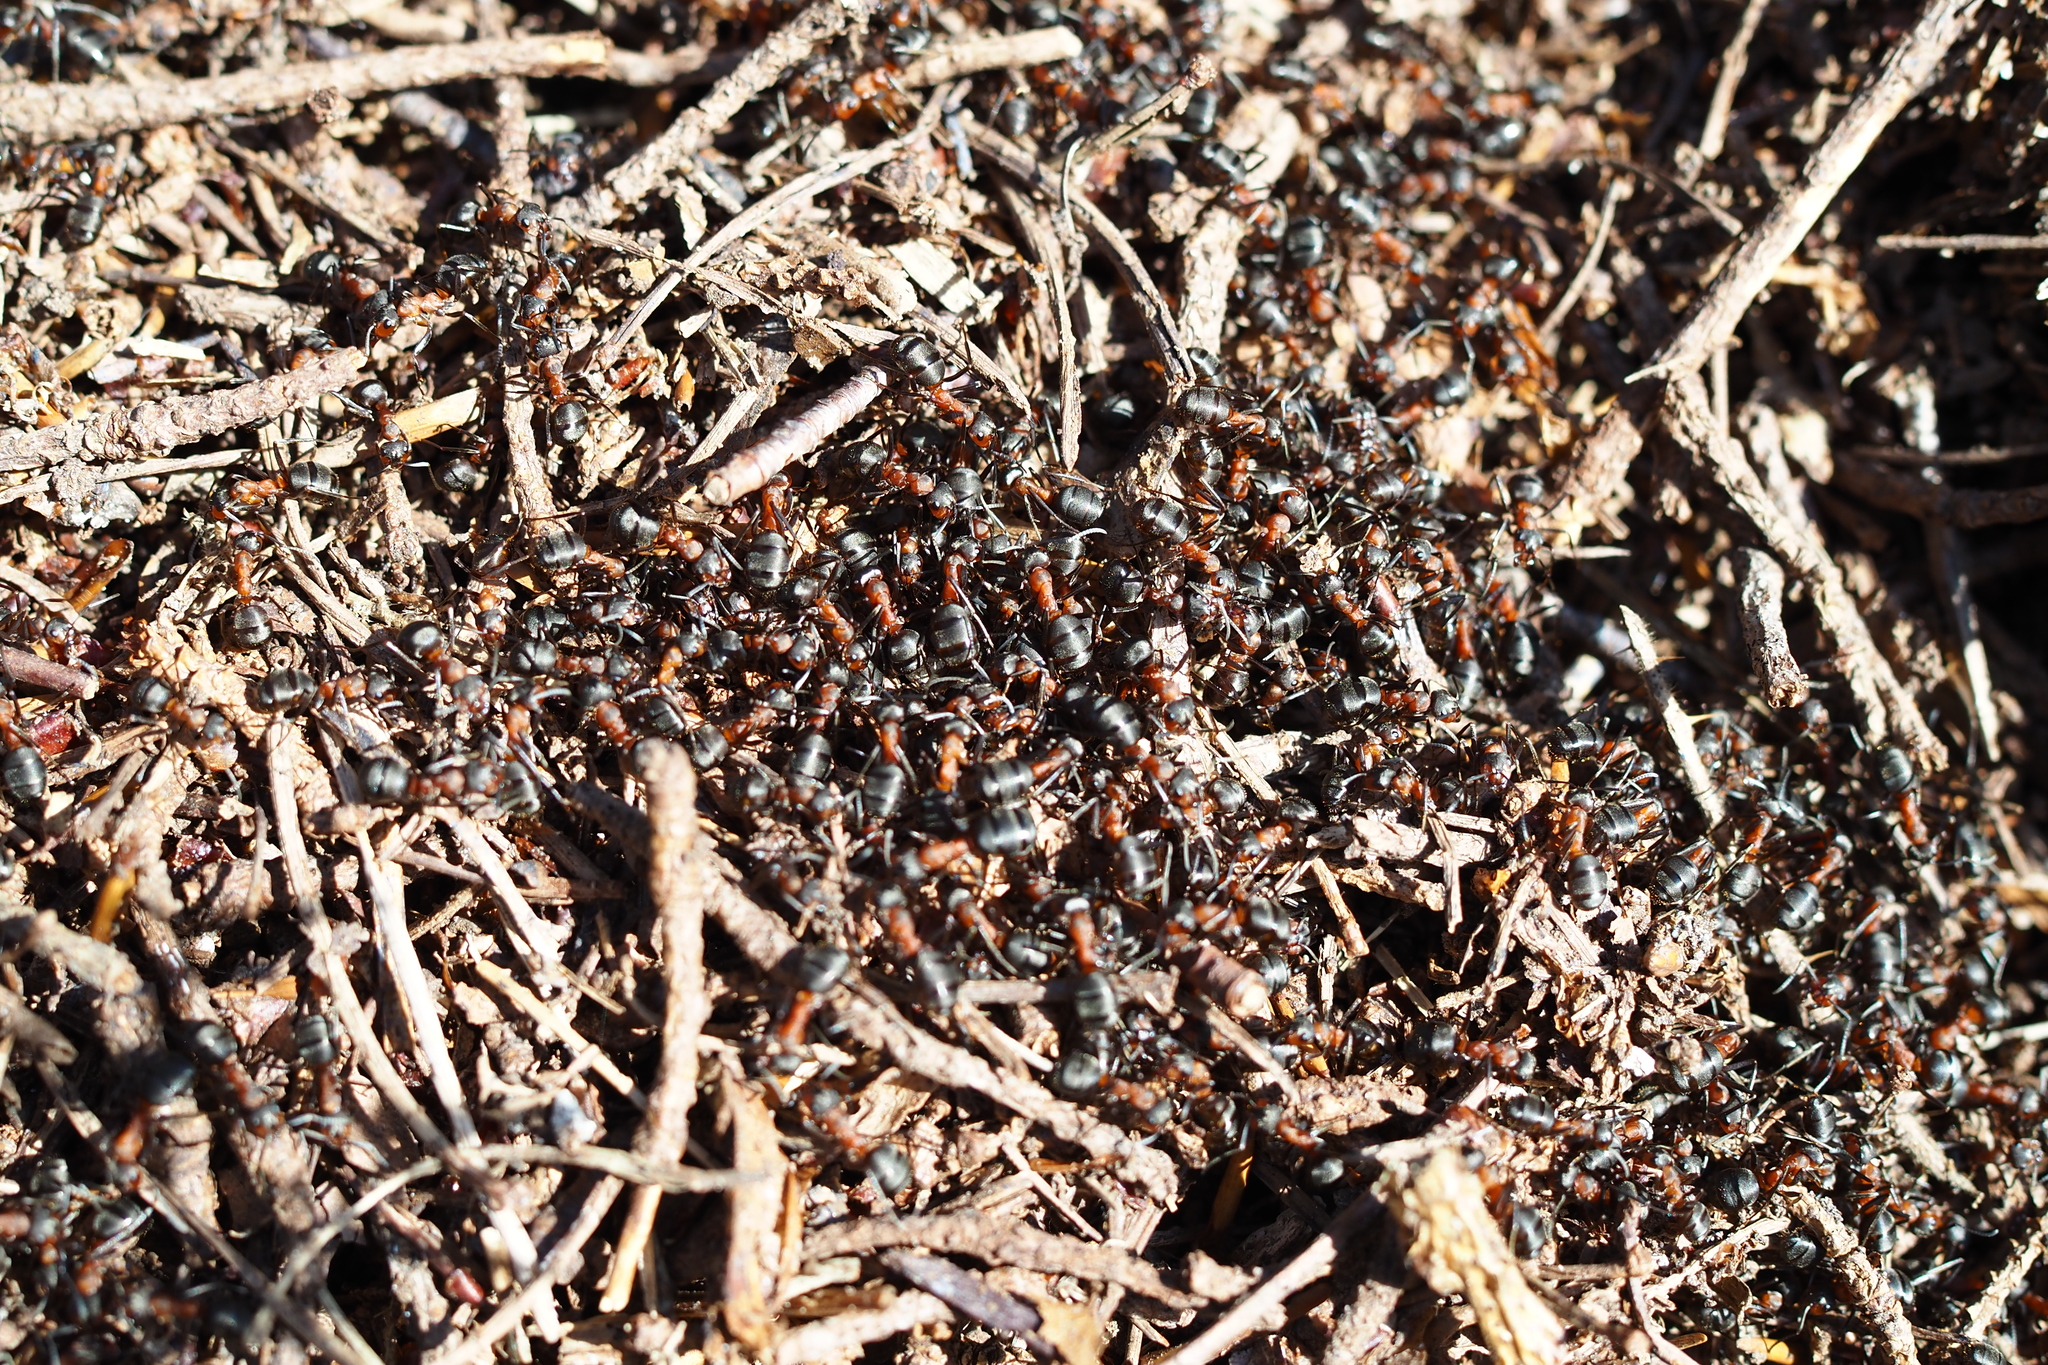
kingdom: Animalia
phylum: Arthropoda
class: Insecta
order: Hymenoptera
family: Formicidae
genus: Formica
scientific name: Formica
